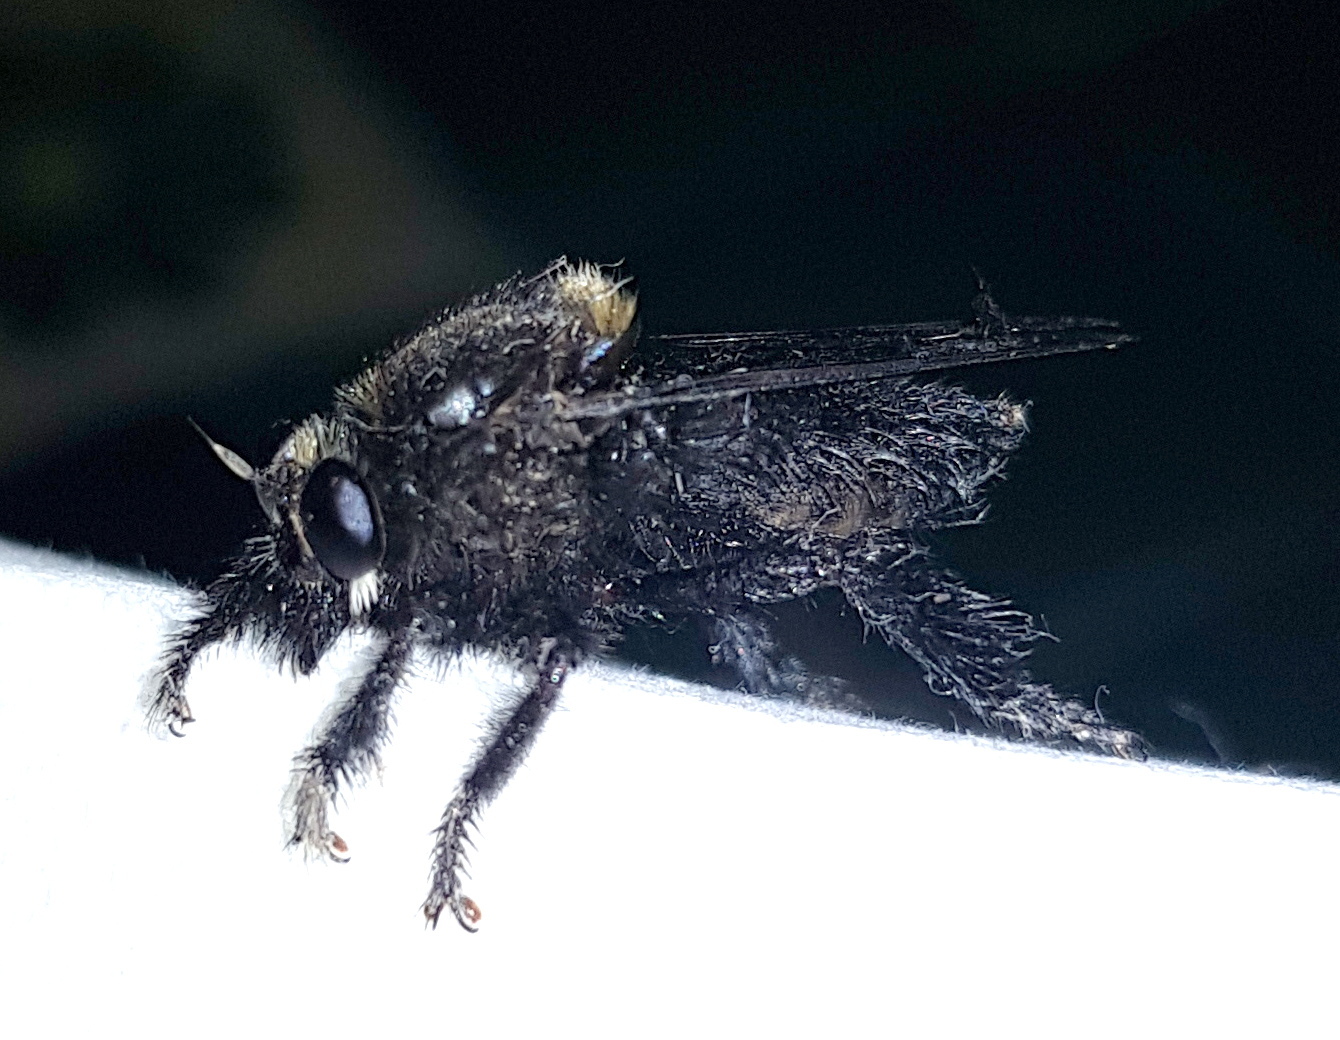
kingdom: Animalia
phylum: Arthropoda
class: Insecta
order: Diptera
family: Asilidae
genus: Mallophora
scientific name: Mallophora leschenaultii
